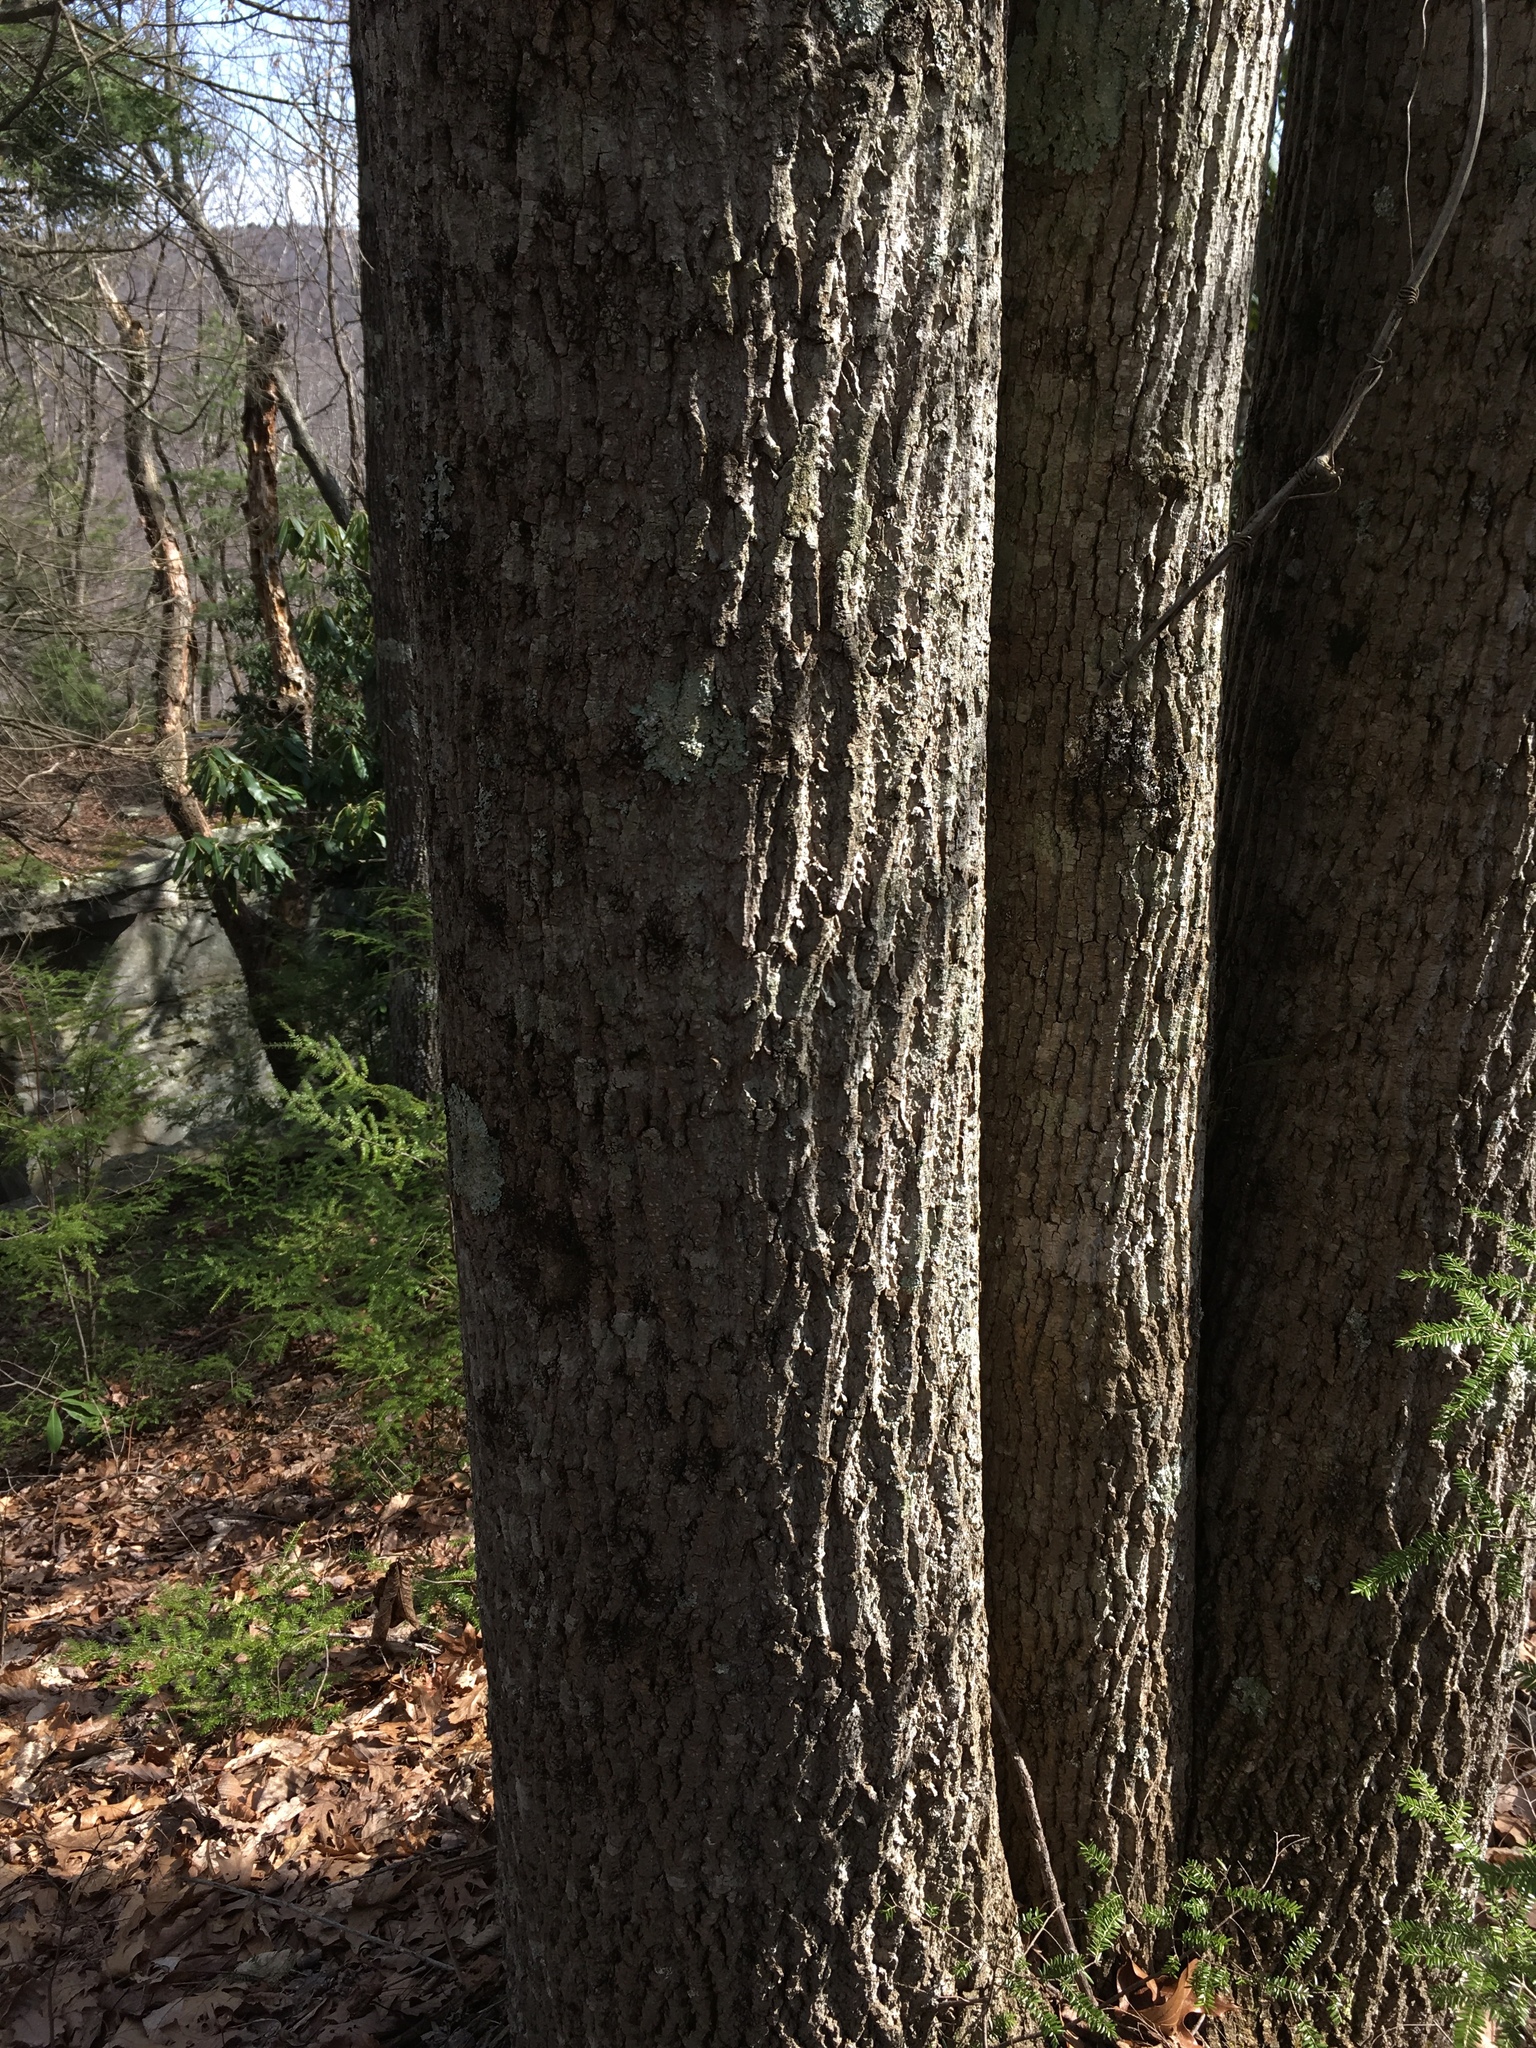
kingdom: Plantae
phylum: Tracheophyta
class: Magnoliopsida
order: Magnoliales
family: Magnoliaceae
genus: Liriodendron
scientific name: Liriodendron tulipifera
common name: Tulip tree
